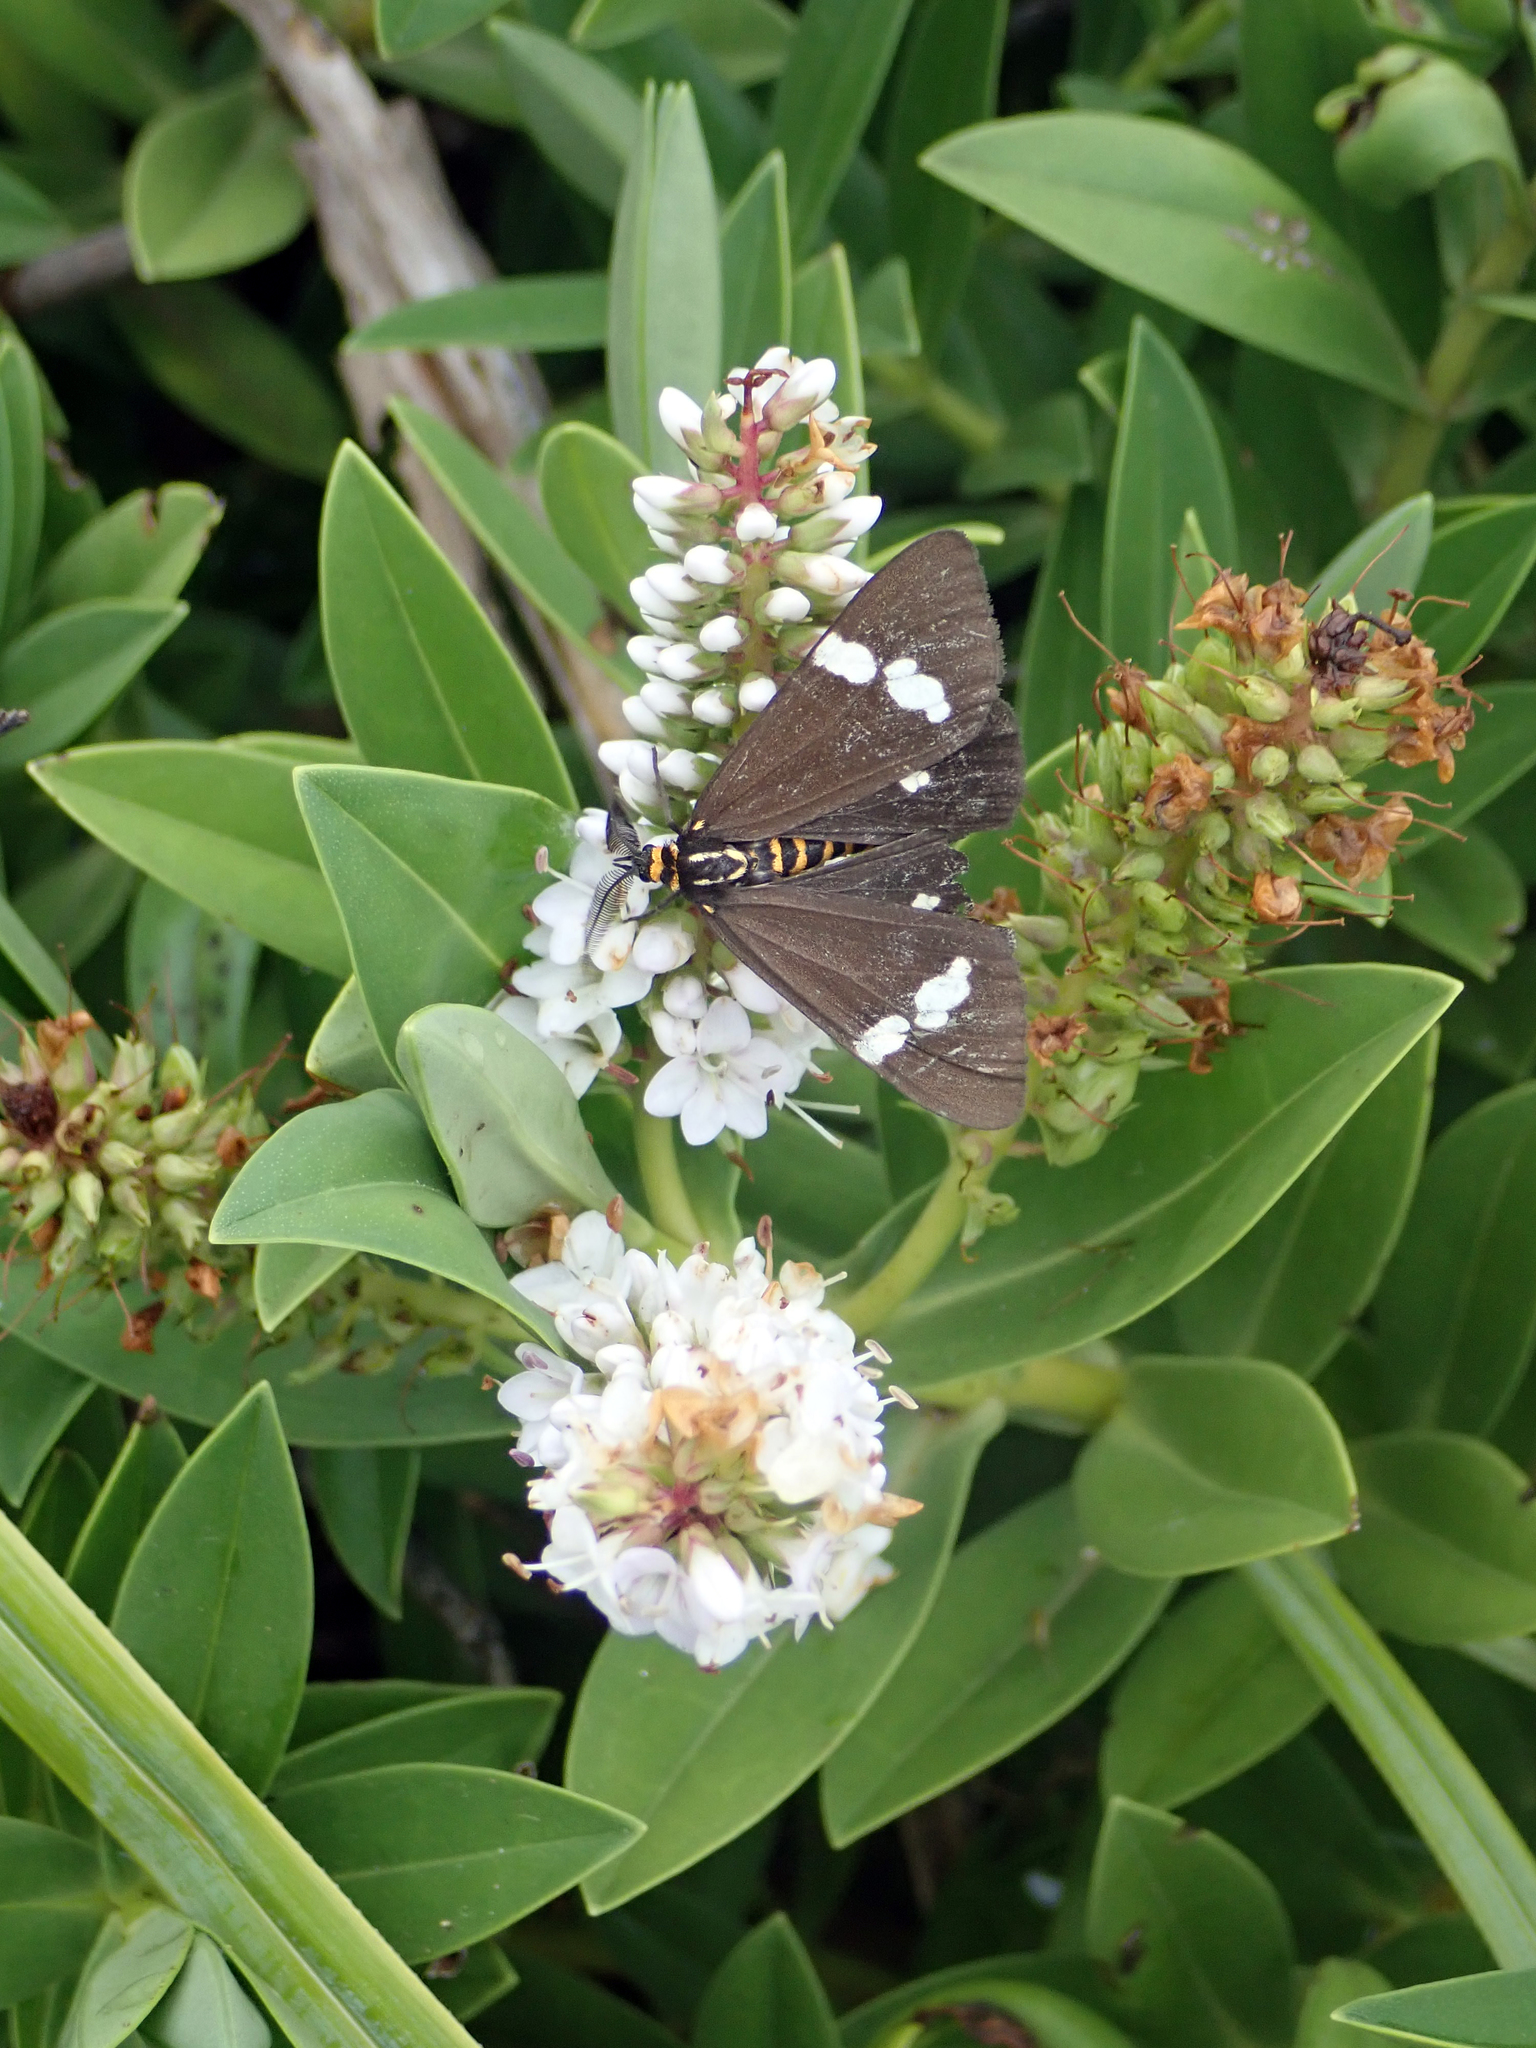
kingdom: Animalia
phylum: Arthropoda
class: Insecta
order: Lepidoptera
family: Erebidae
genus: Nyctemera
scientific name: Nyctemera annulatum
